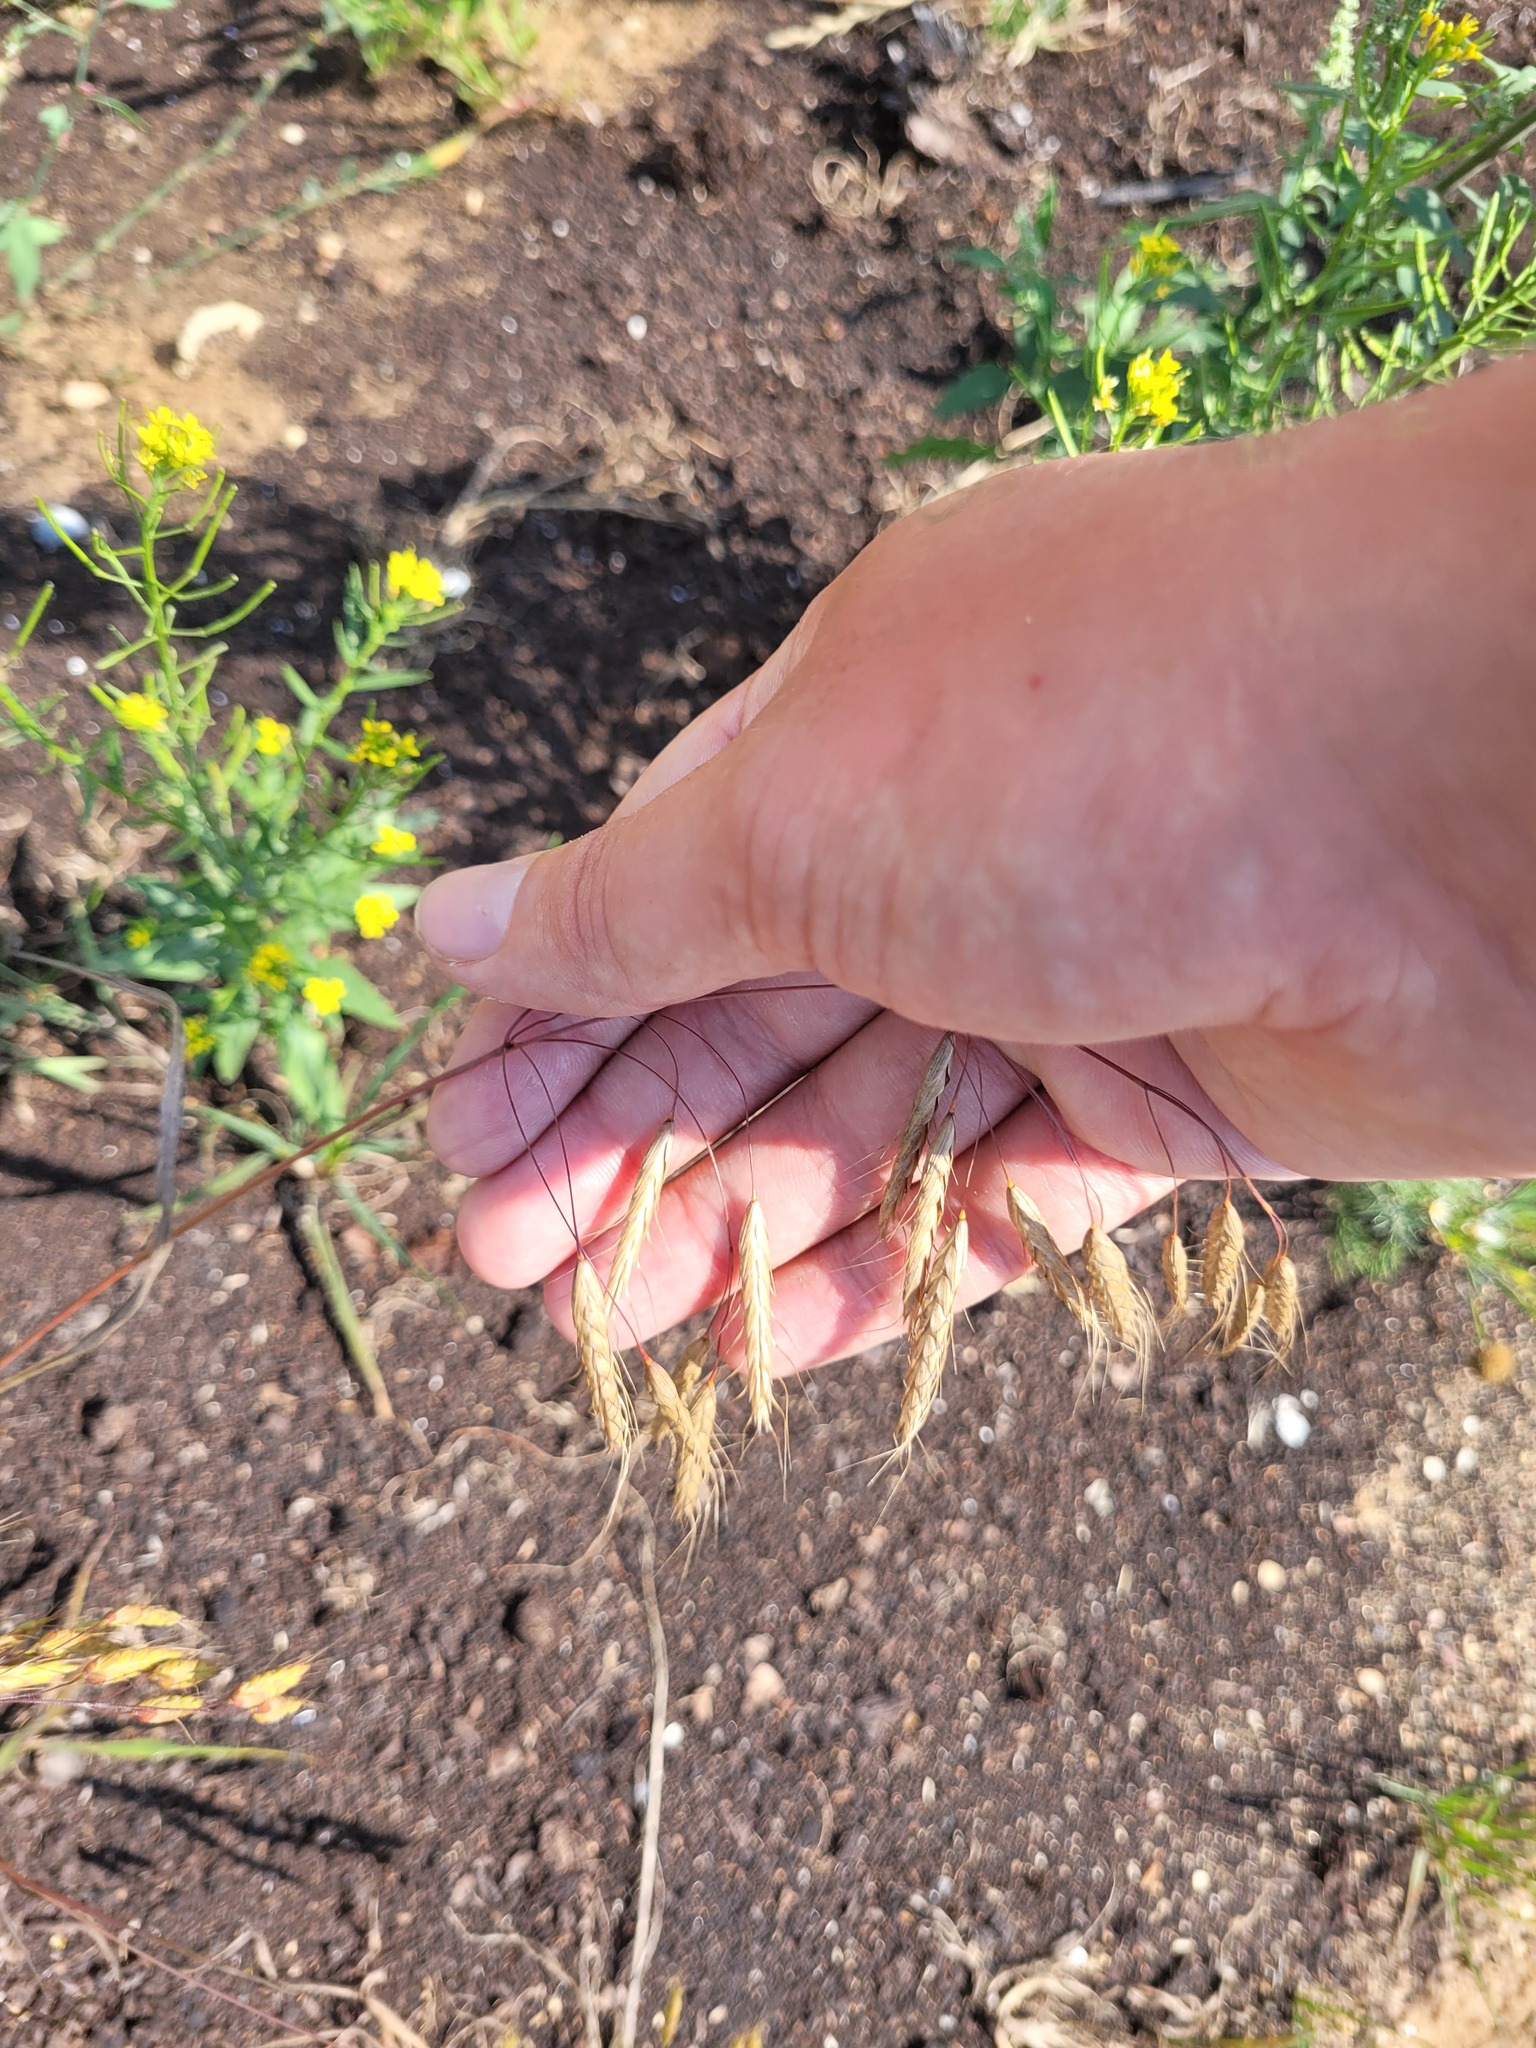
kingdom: Plantae
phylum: Tracheophyta
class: Liliopsida
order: Poales
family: Poaceae
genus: Bromus
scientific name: Bromus squarrosus
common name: Corn brome
